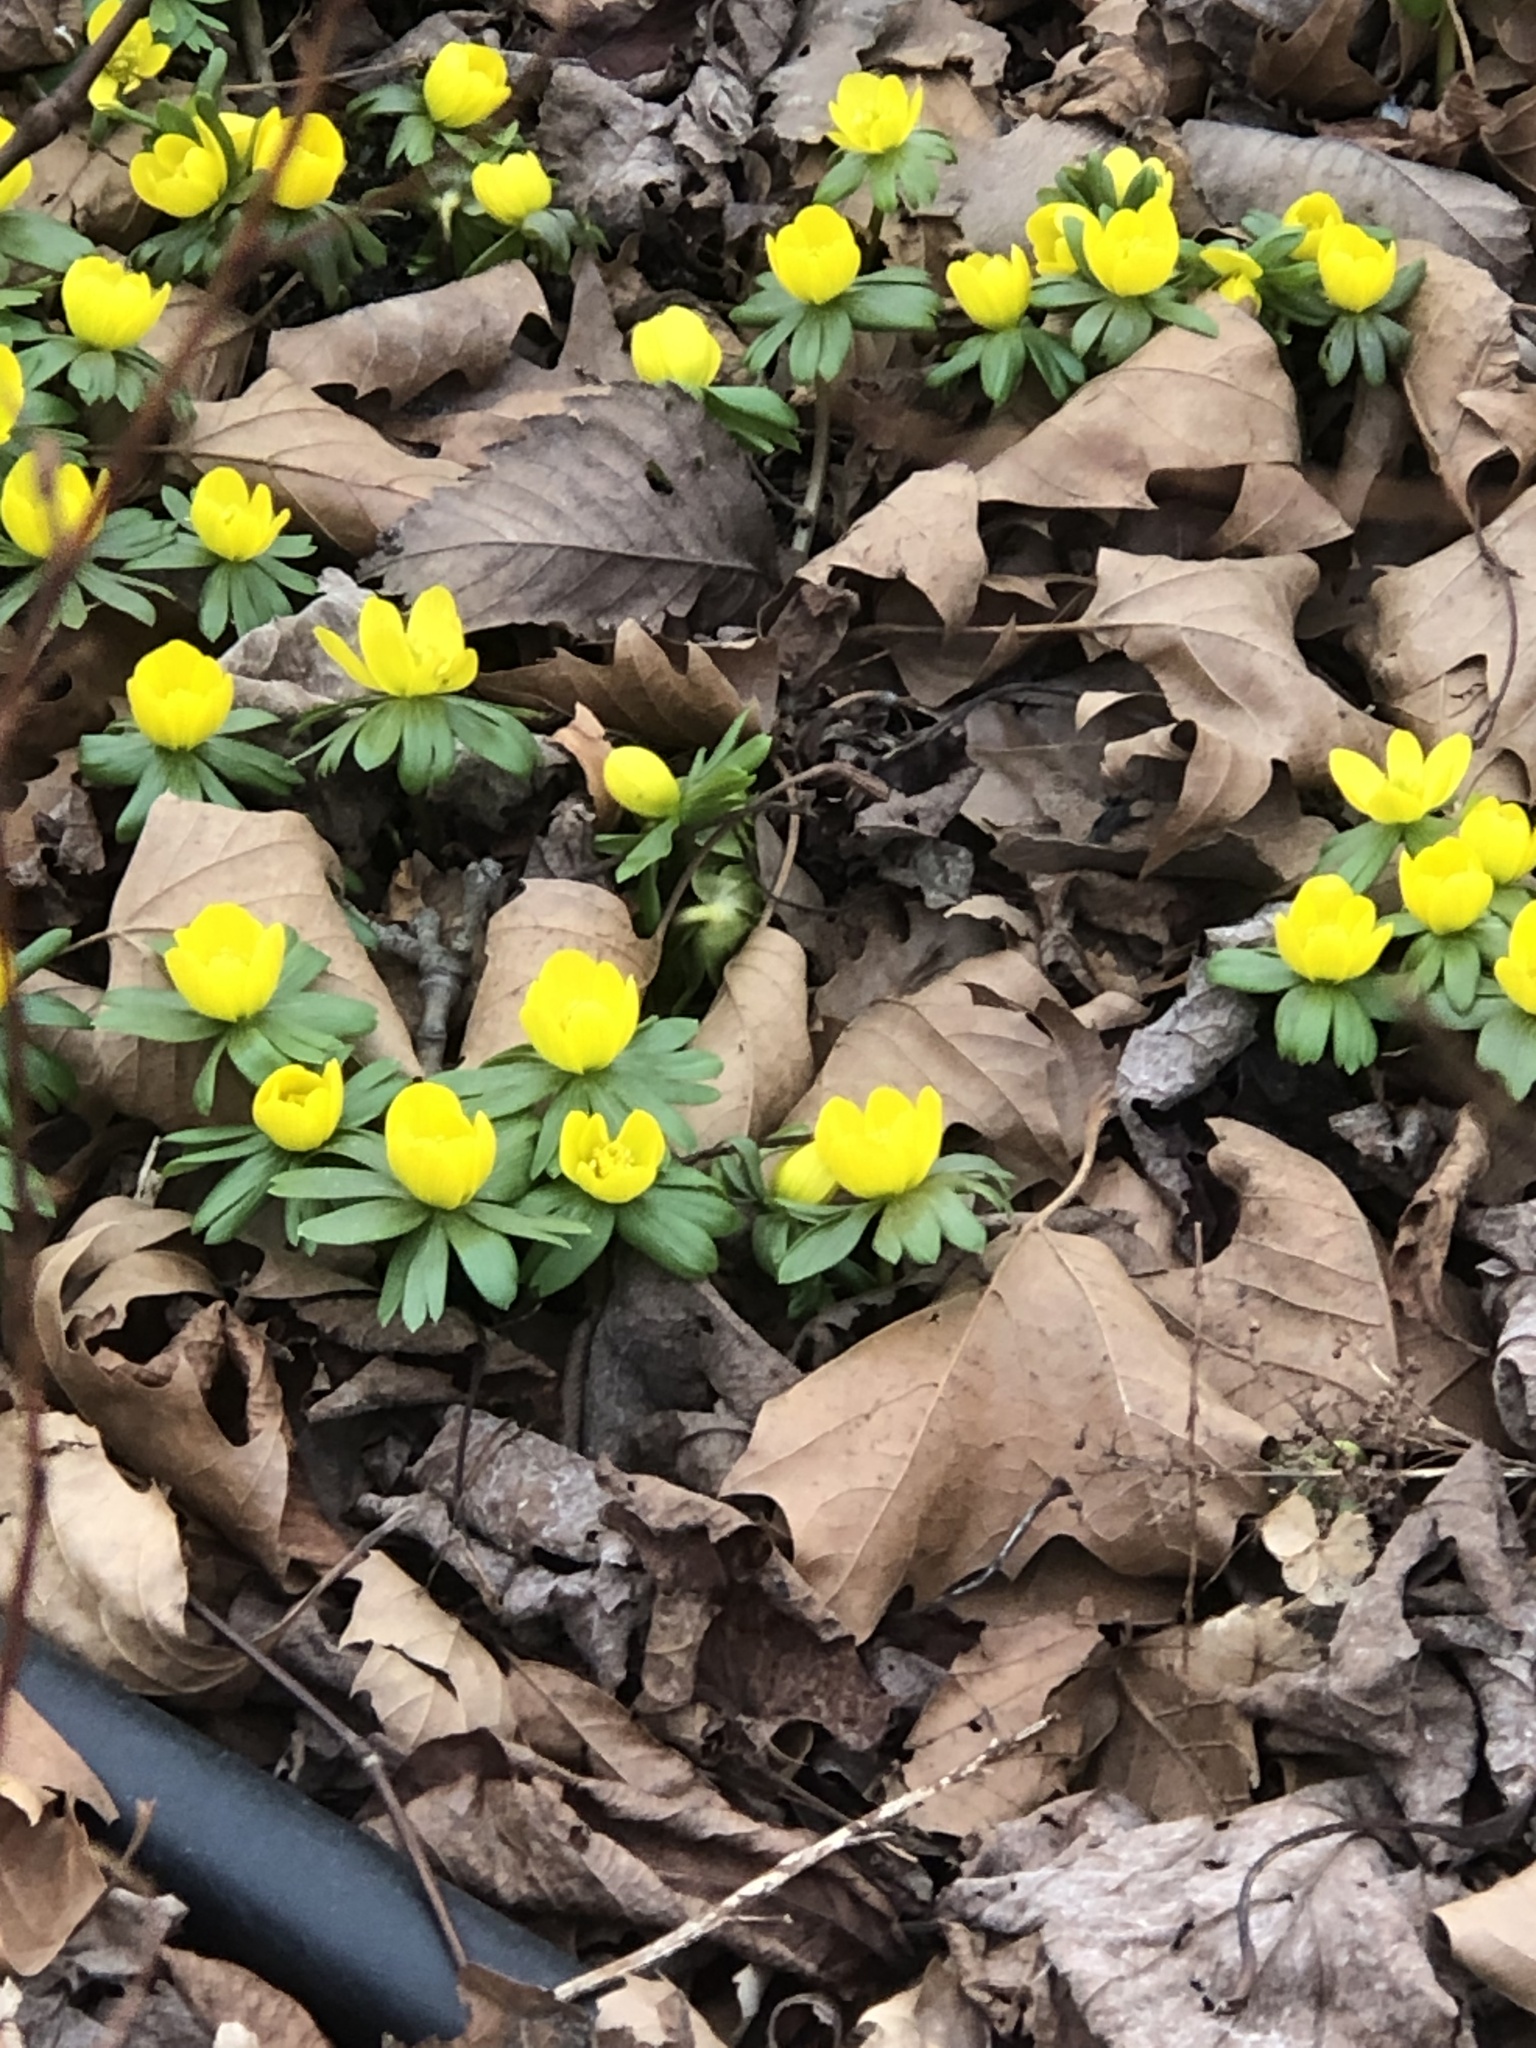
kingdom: Plantae
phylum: Tracheophyta
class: Magnoliopsida
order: Ranunculales
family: Ranunculaceae
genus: Eranthis
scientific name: Eranthis hyemalis
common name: Winter aconite
